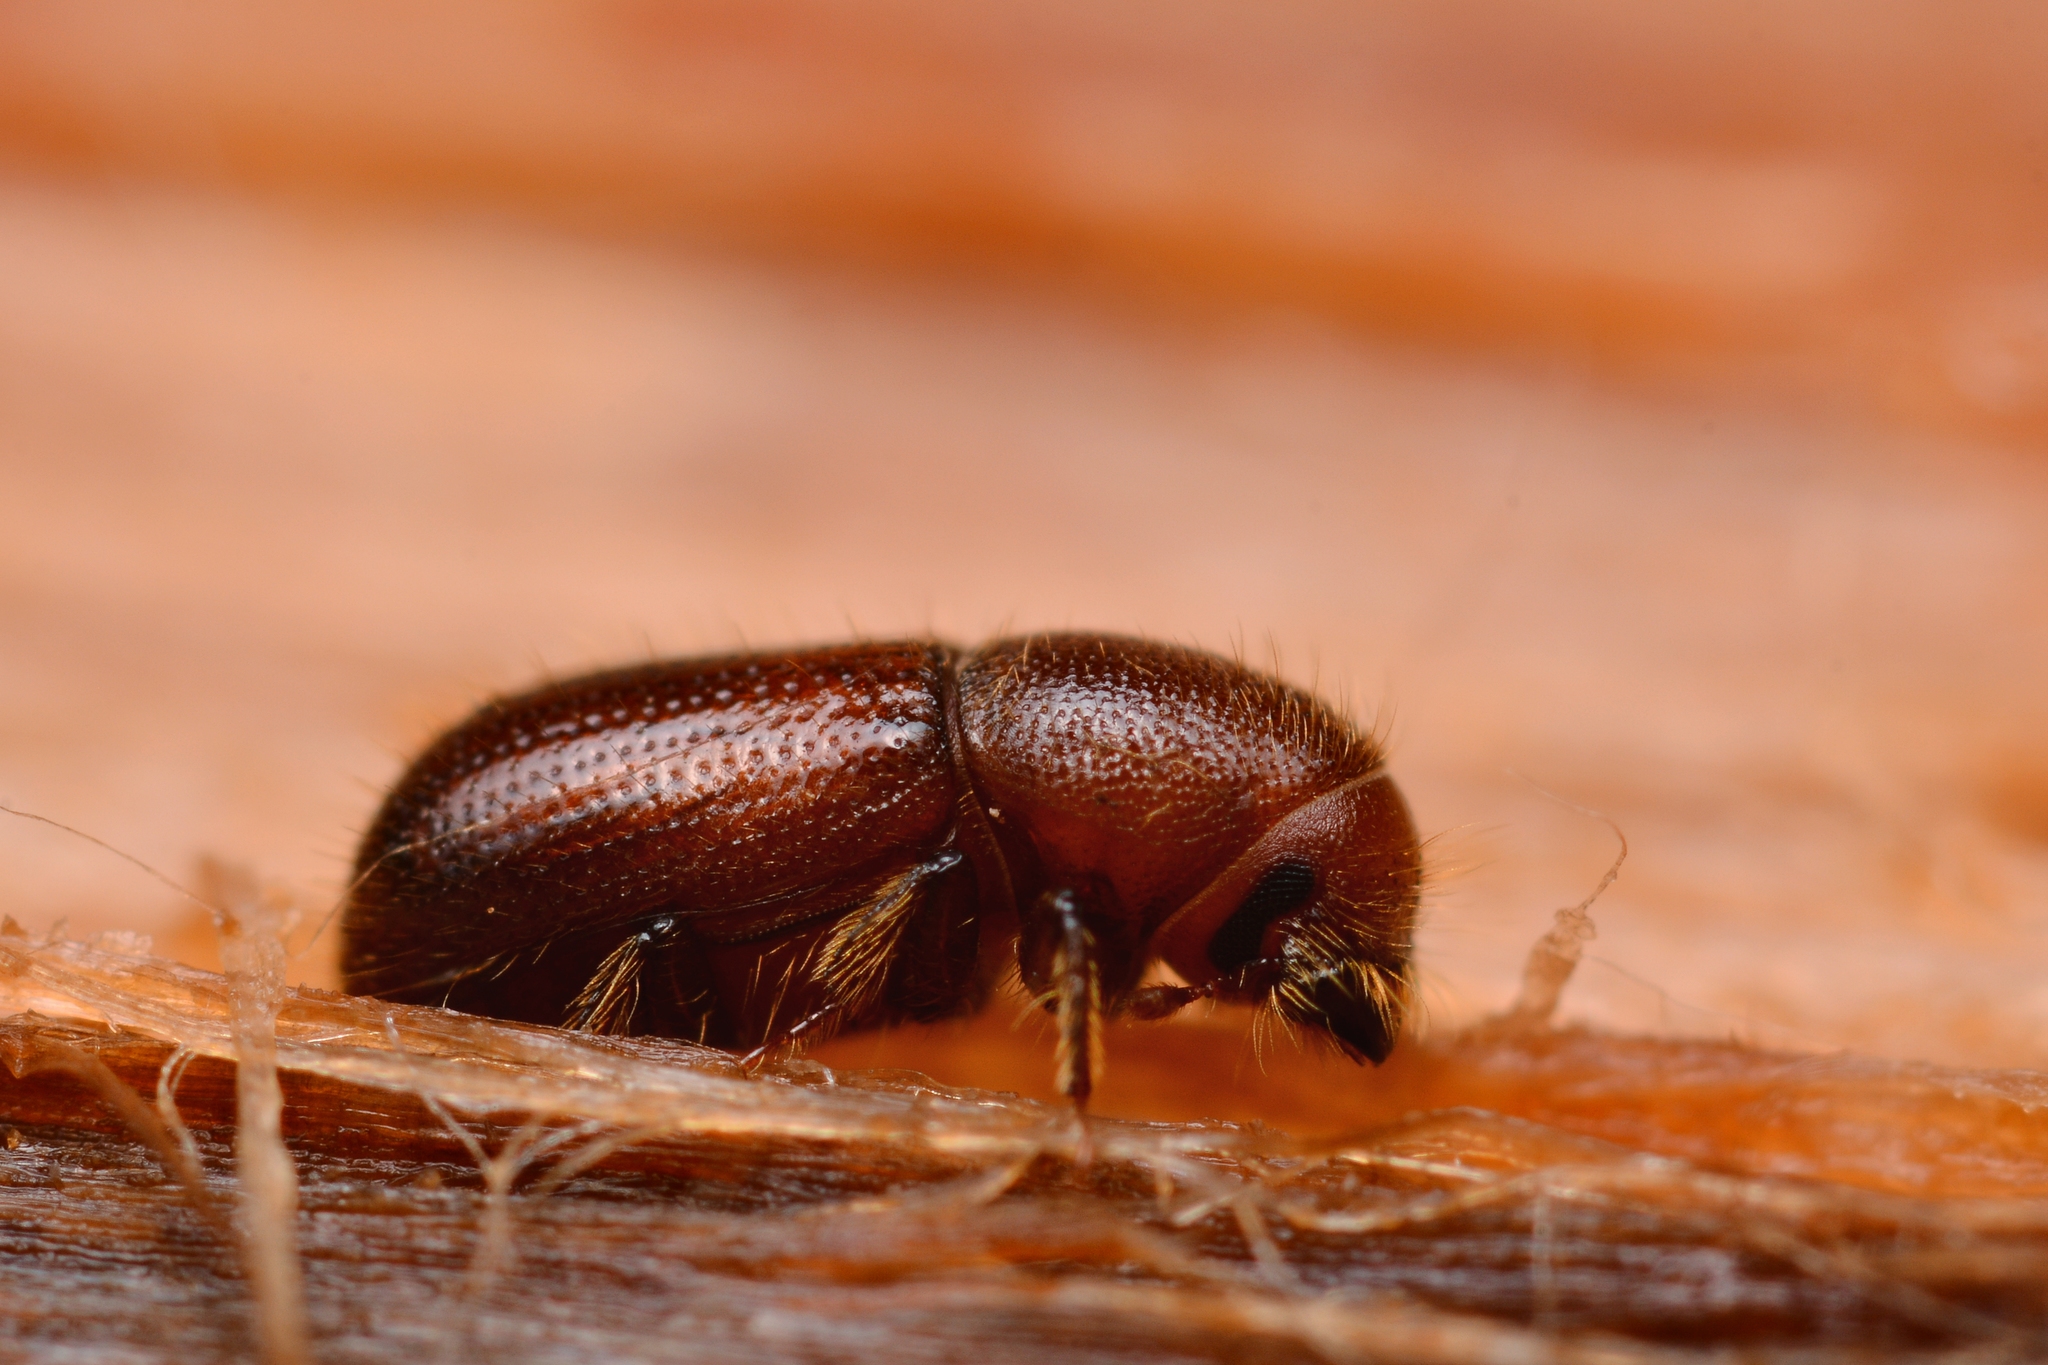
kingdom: Animalia
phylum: Arthropoda
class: Insecta
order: Coleoptera
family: Curculionidae
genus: Dryocoetes
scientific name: Dryocoetes autographus
